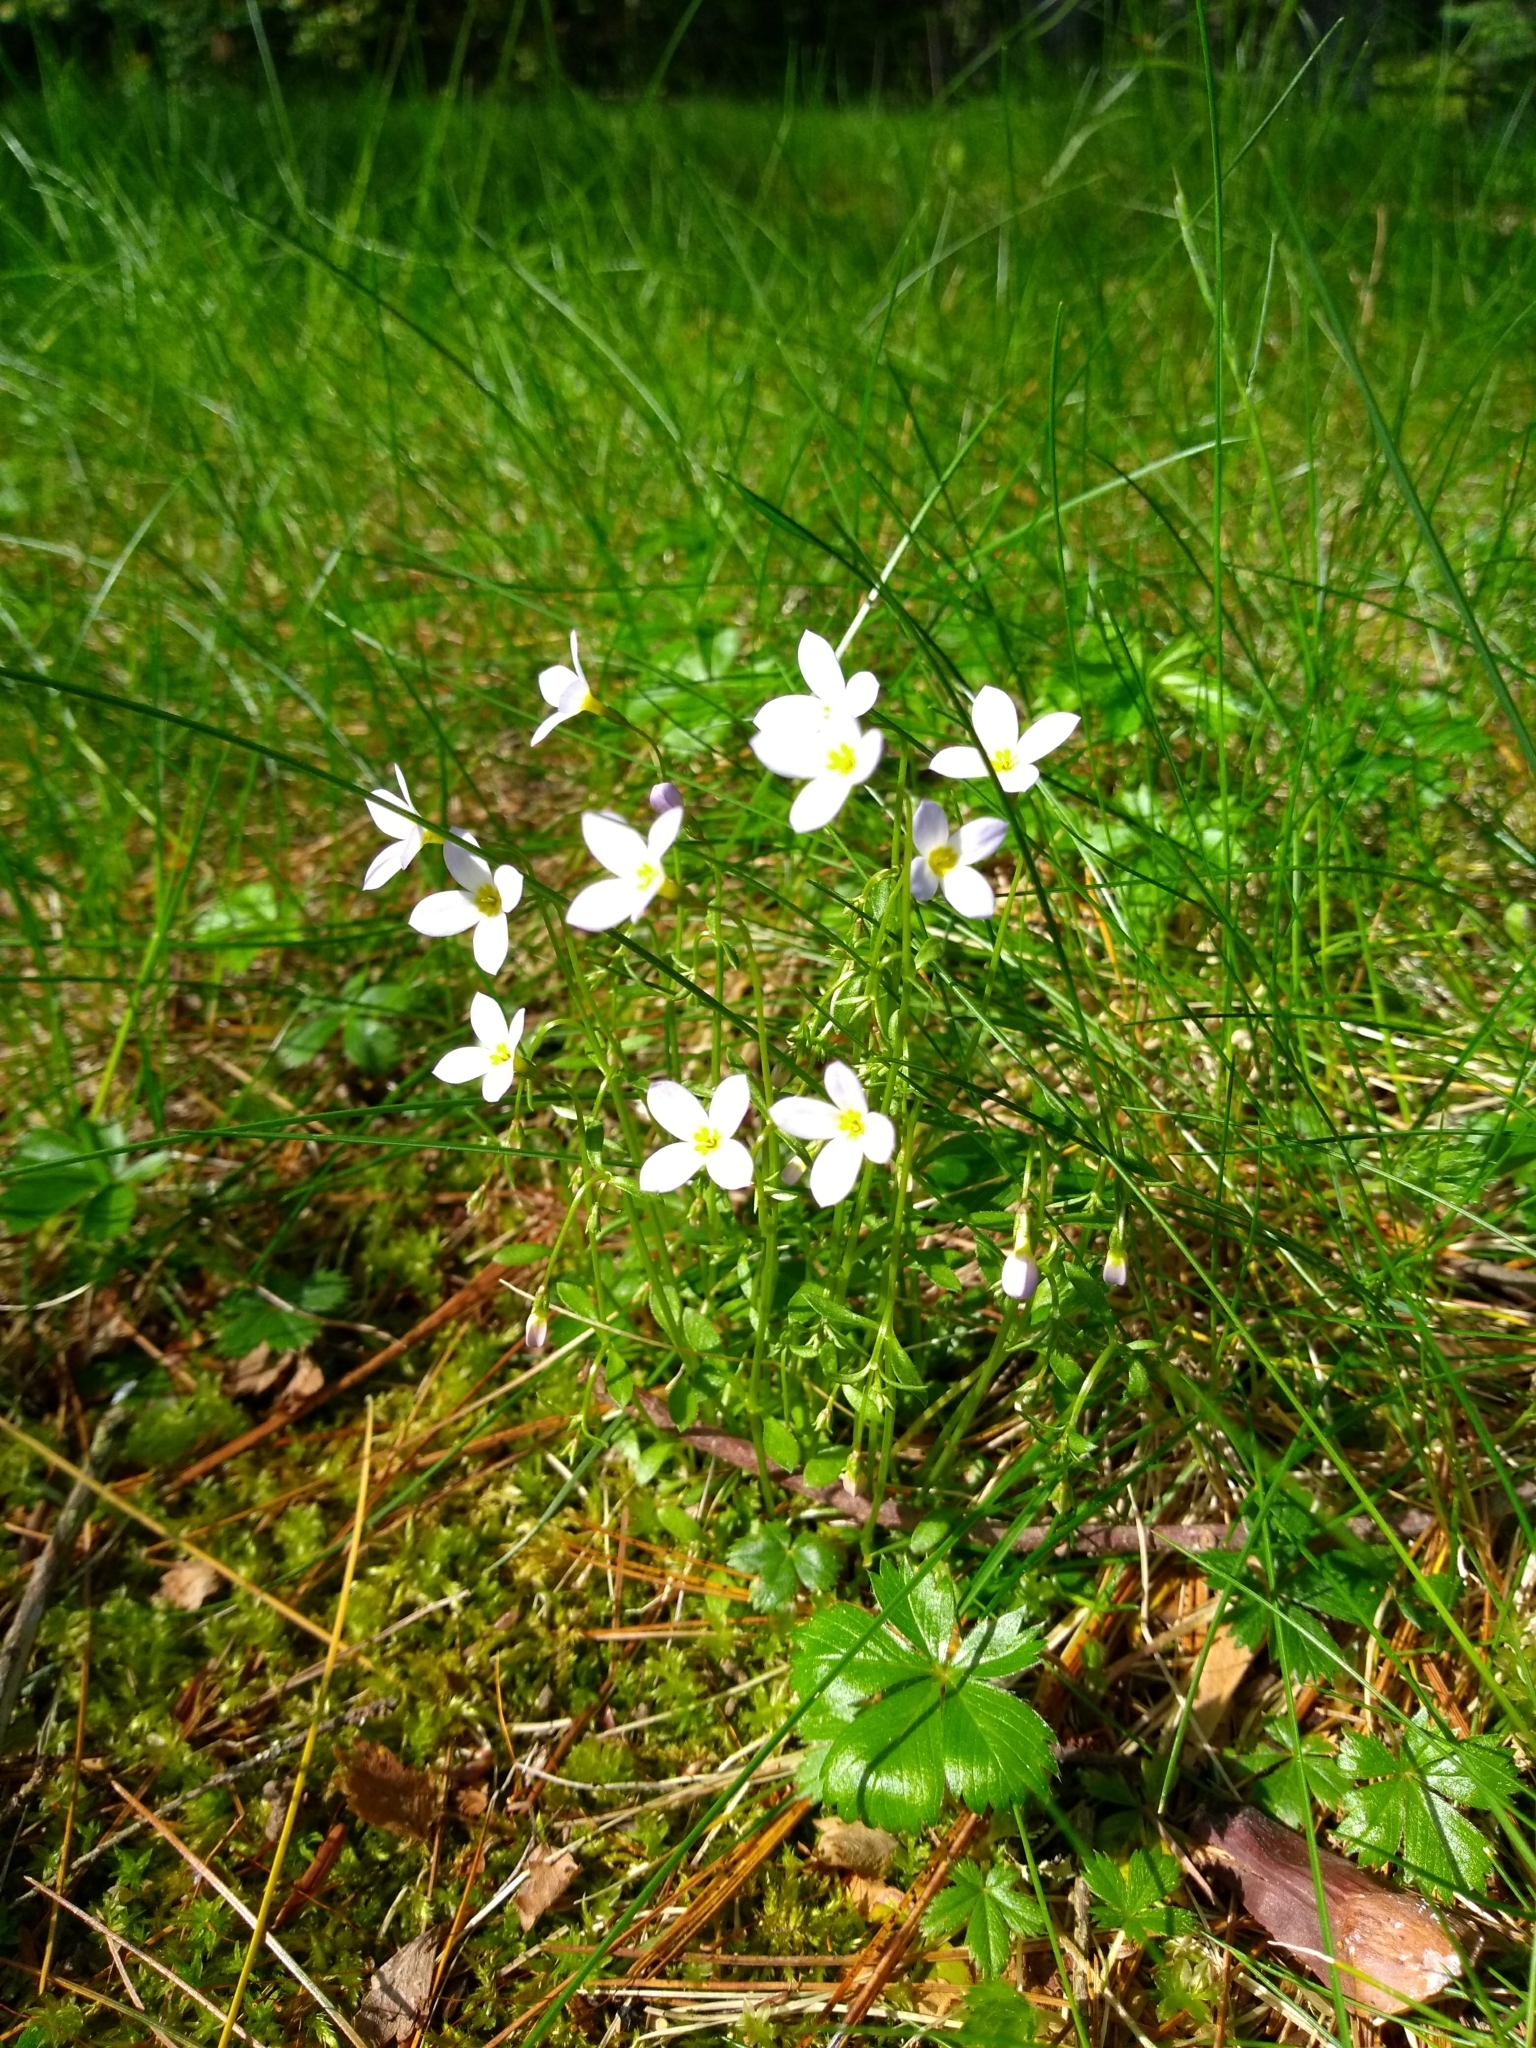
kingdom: Plantae
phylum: Tracheophyta
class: Magnoliopsida
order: Gentianales
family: Rubiaceae
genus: Houstonia
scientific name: Houstonia caerulea
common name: Bluets
